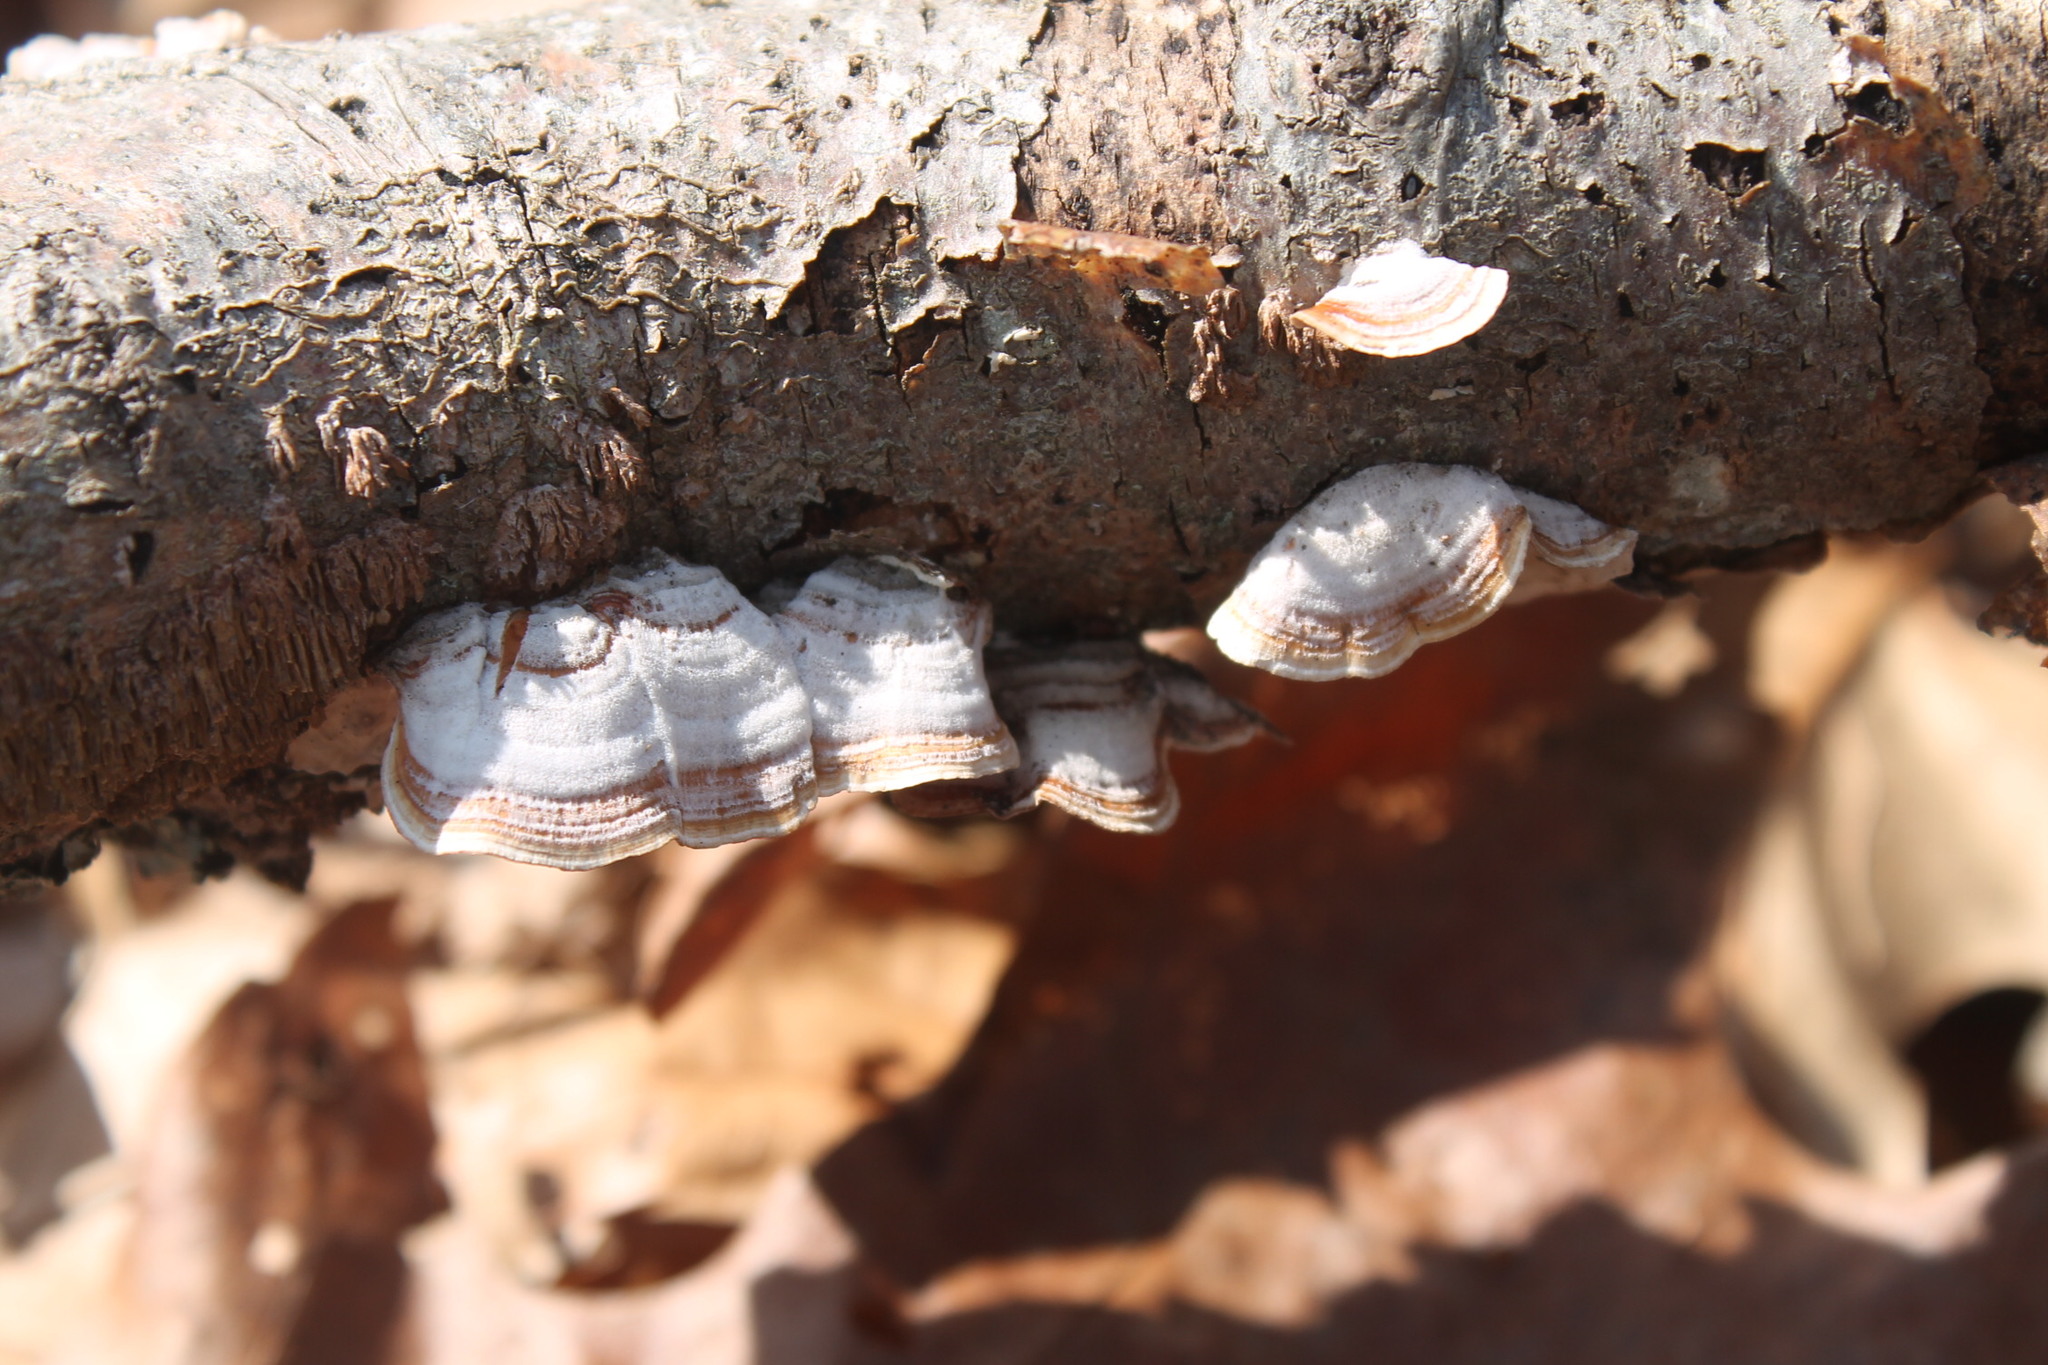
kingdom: Fungi
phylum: Basidiomycota
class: Agaricomycetes
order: Russulales
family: Stereaceae
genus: Stereum
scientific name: Stereum lobatum
